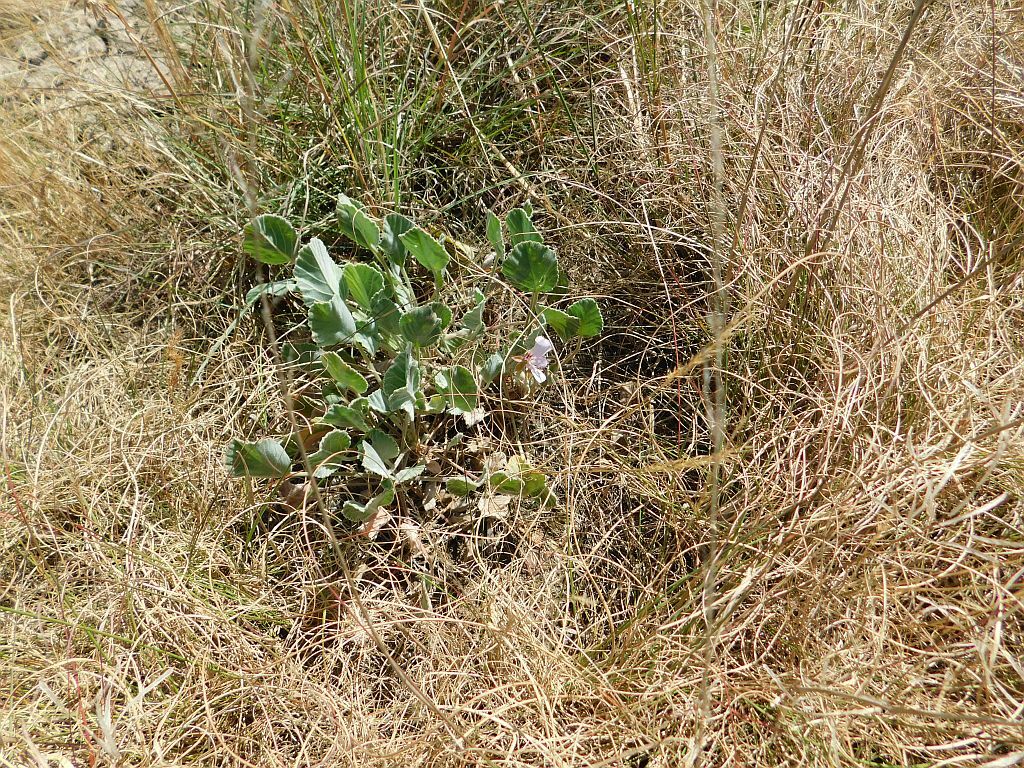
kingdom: Plantae
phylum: Tracheophyta
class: Magnoliopsida
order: Geraniales
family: Geraniaceae
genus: Pelargonium
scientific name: Pelargonium ovale
